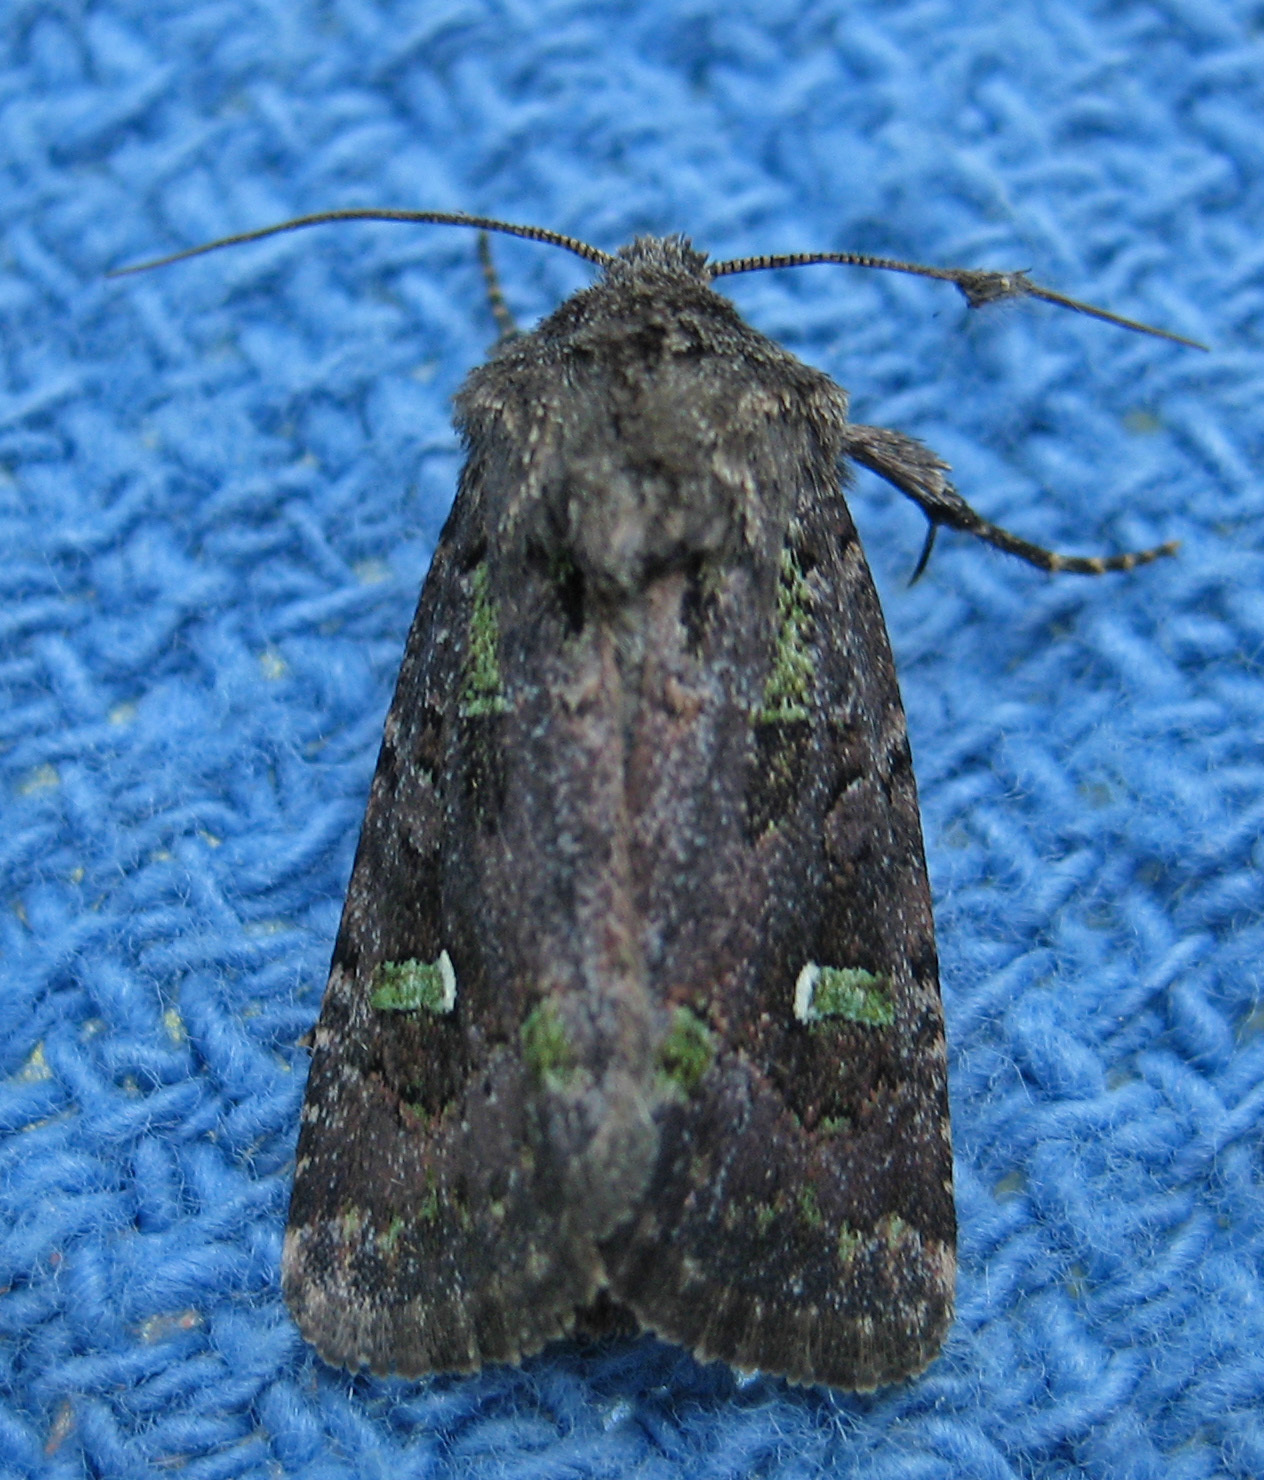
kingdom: Animalia
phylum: Arthropoda
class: Insecta
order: Lepidoptera
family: Noctuidae
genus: Lacinipolia
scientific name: Lacinipolia renigera
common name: Kidney-spotted minor
